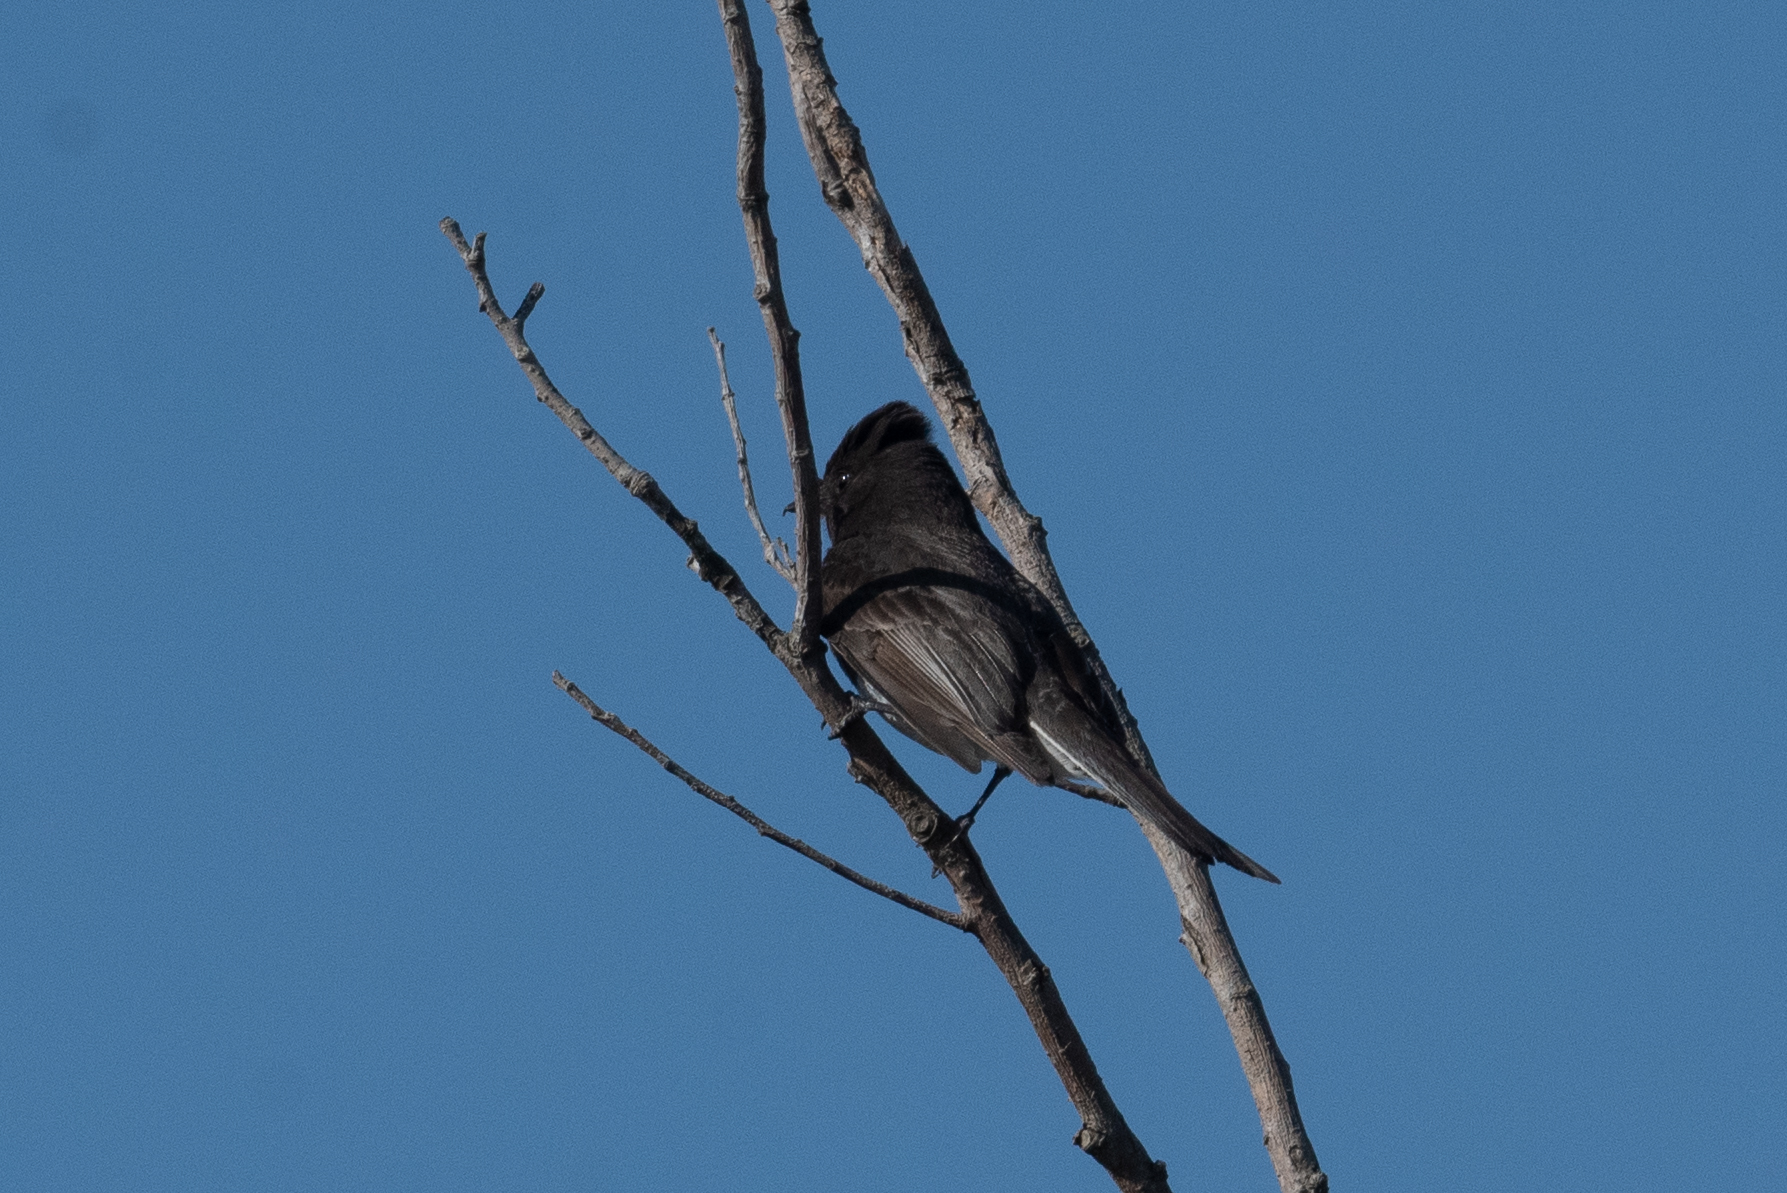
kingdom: Animalia
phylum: Chordata
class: Aves
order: Passeriformes
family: Tyrannidae
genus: Sayornis
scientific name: Sayornis nigricans
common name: Black phoebe
